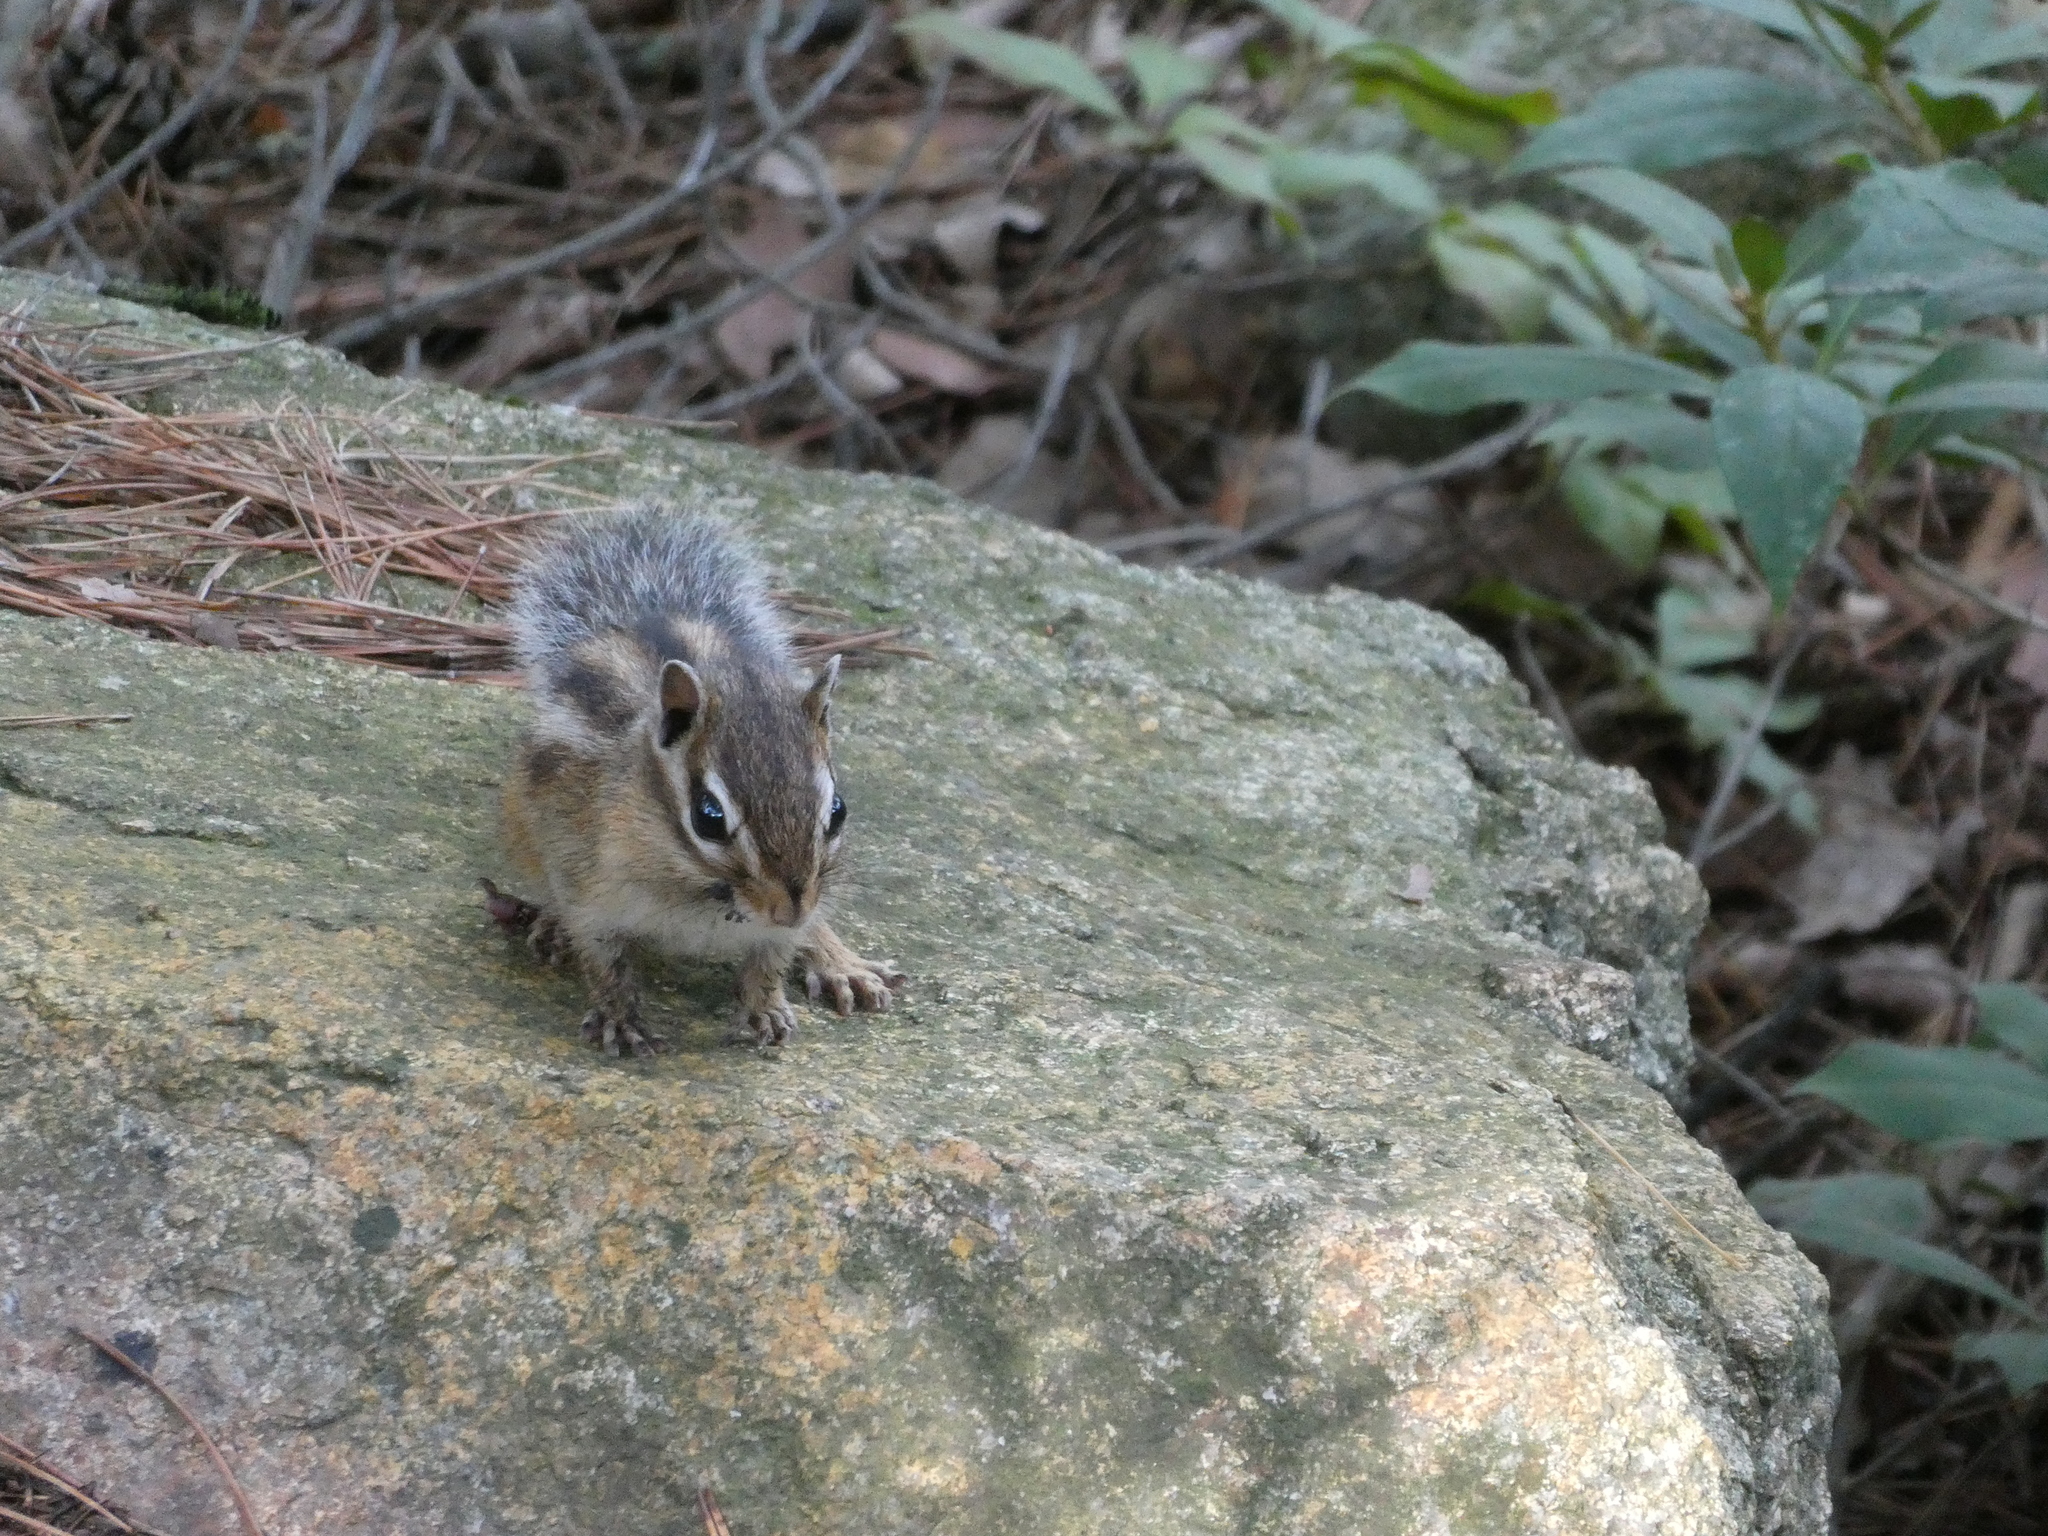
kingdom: Animalia
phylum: Chordata
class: Mammalia
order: Rodentia
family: Sciuridae
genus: Tamias
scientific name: Tamias sibiricus
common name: Siberian chipmunk
